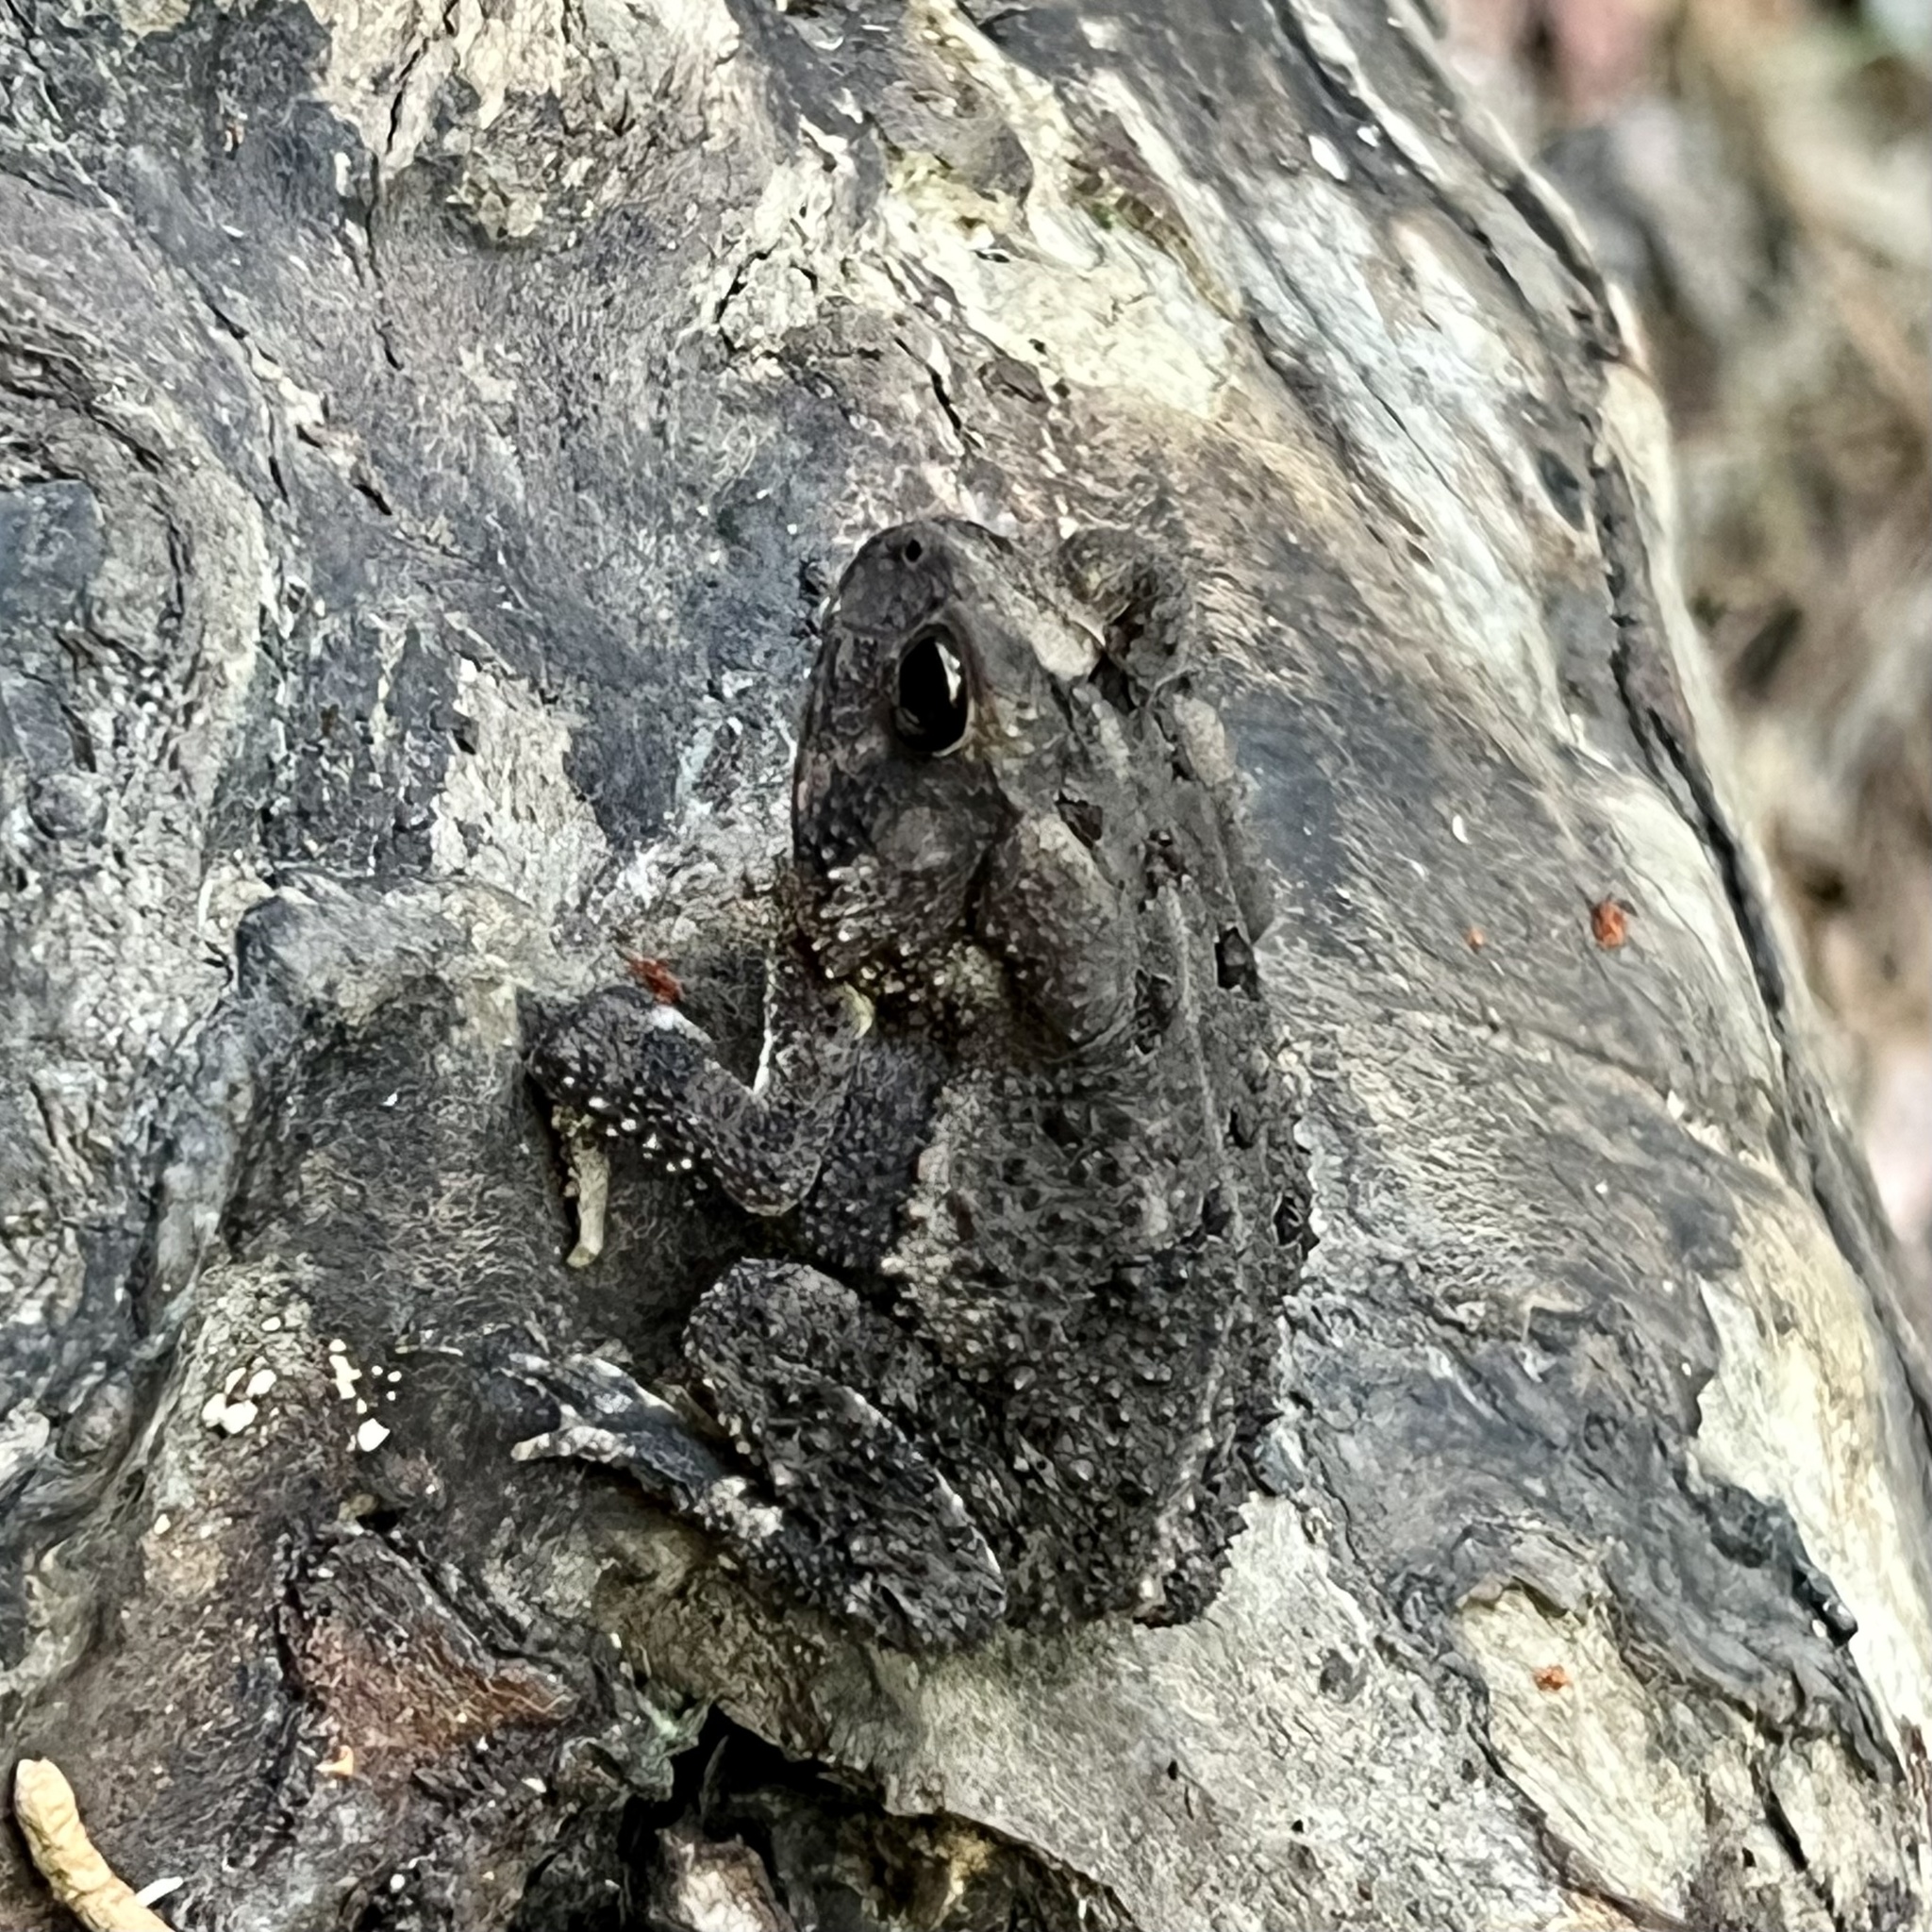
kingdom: Animalia
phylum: Chordata
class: Amphibia
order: Anura
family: Bufonidae
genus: Anaxyrus
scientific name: Anaxyrus fowleri
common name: Fowler's toad
